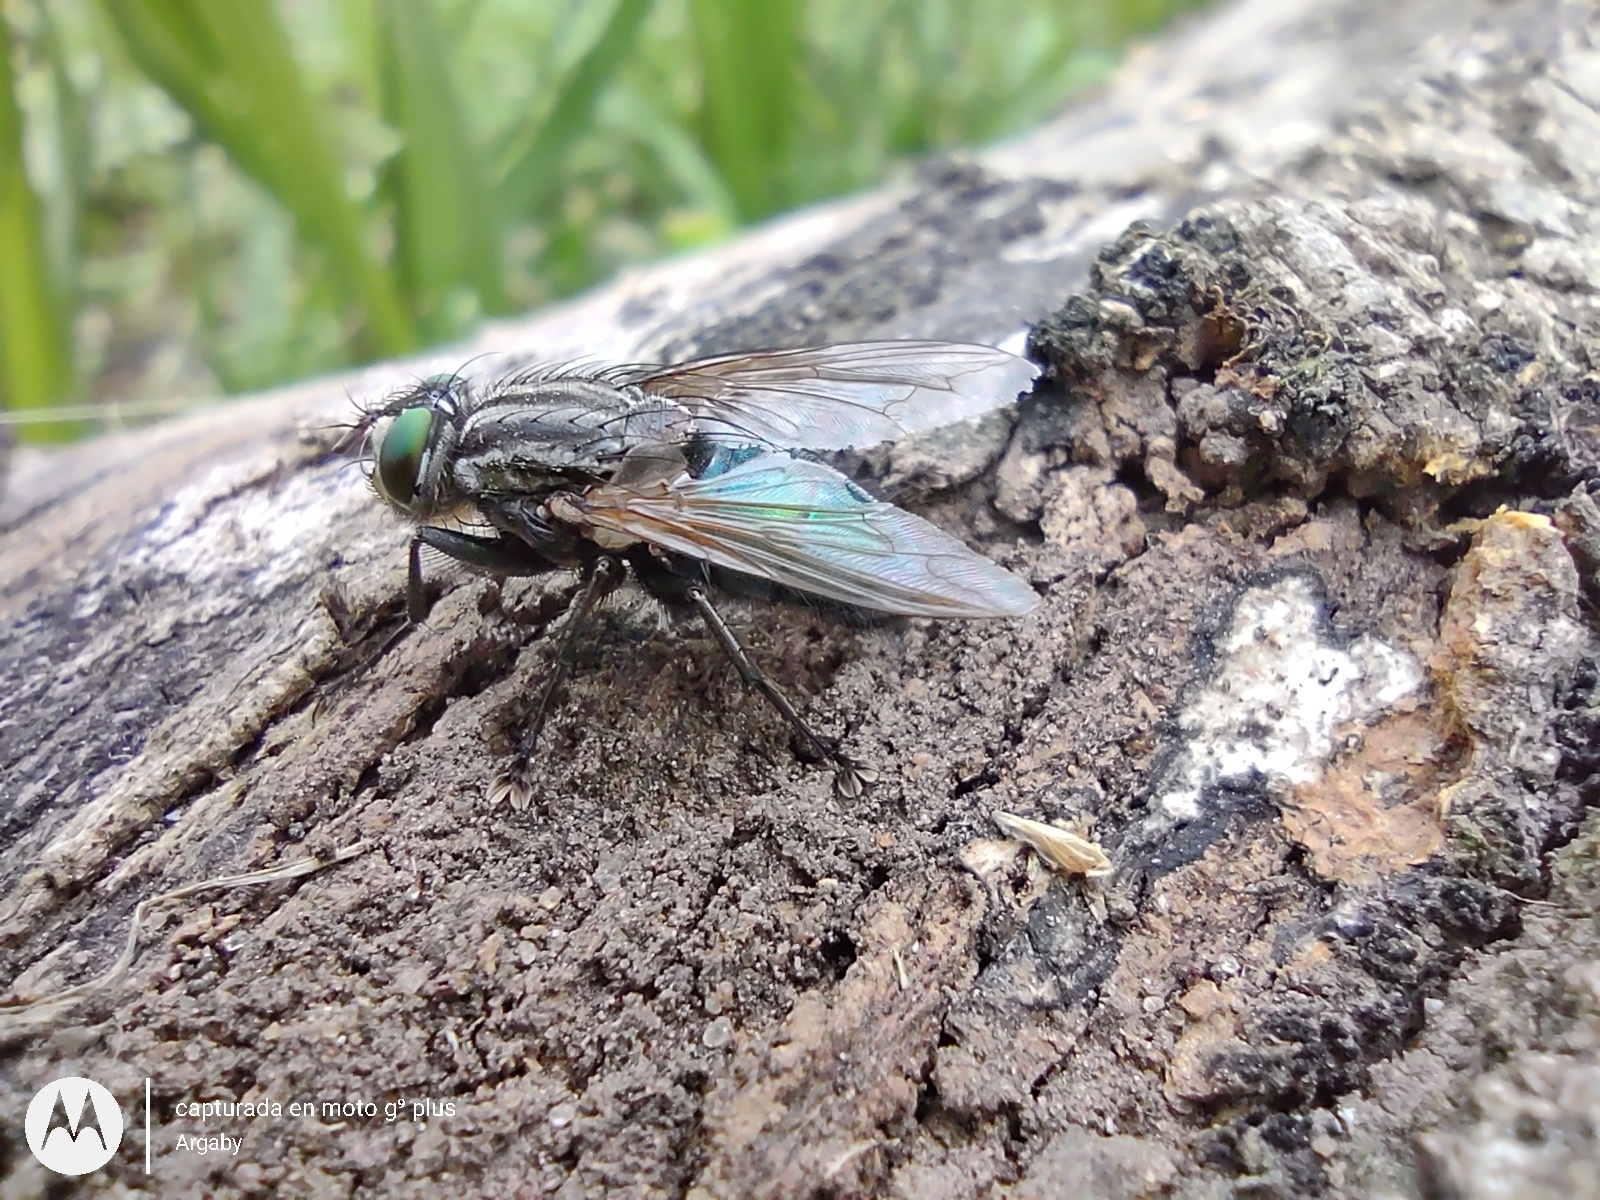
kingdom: Animalia
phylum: Arthropoda
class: Insecta
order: Diptera
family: Calliphoridae
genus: Sarconesia
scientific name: Sarconesia chlorogaster
